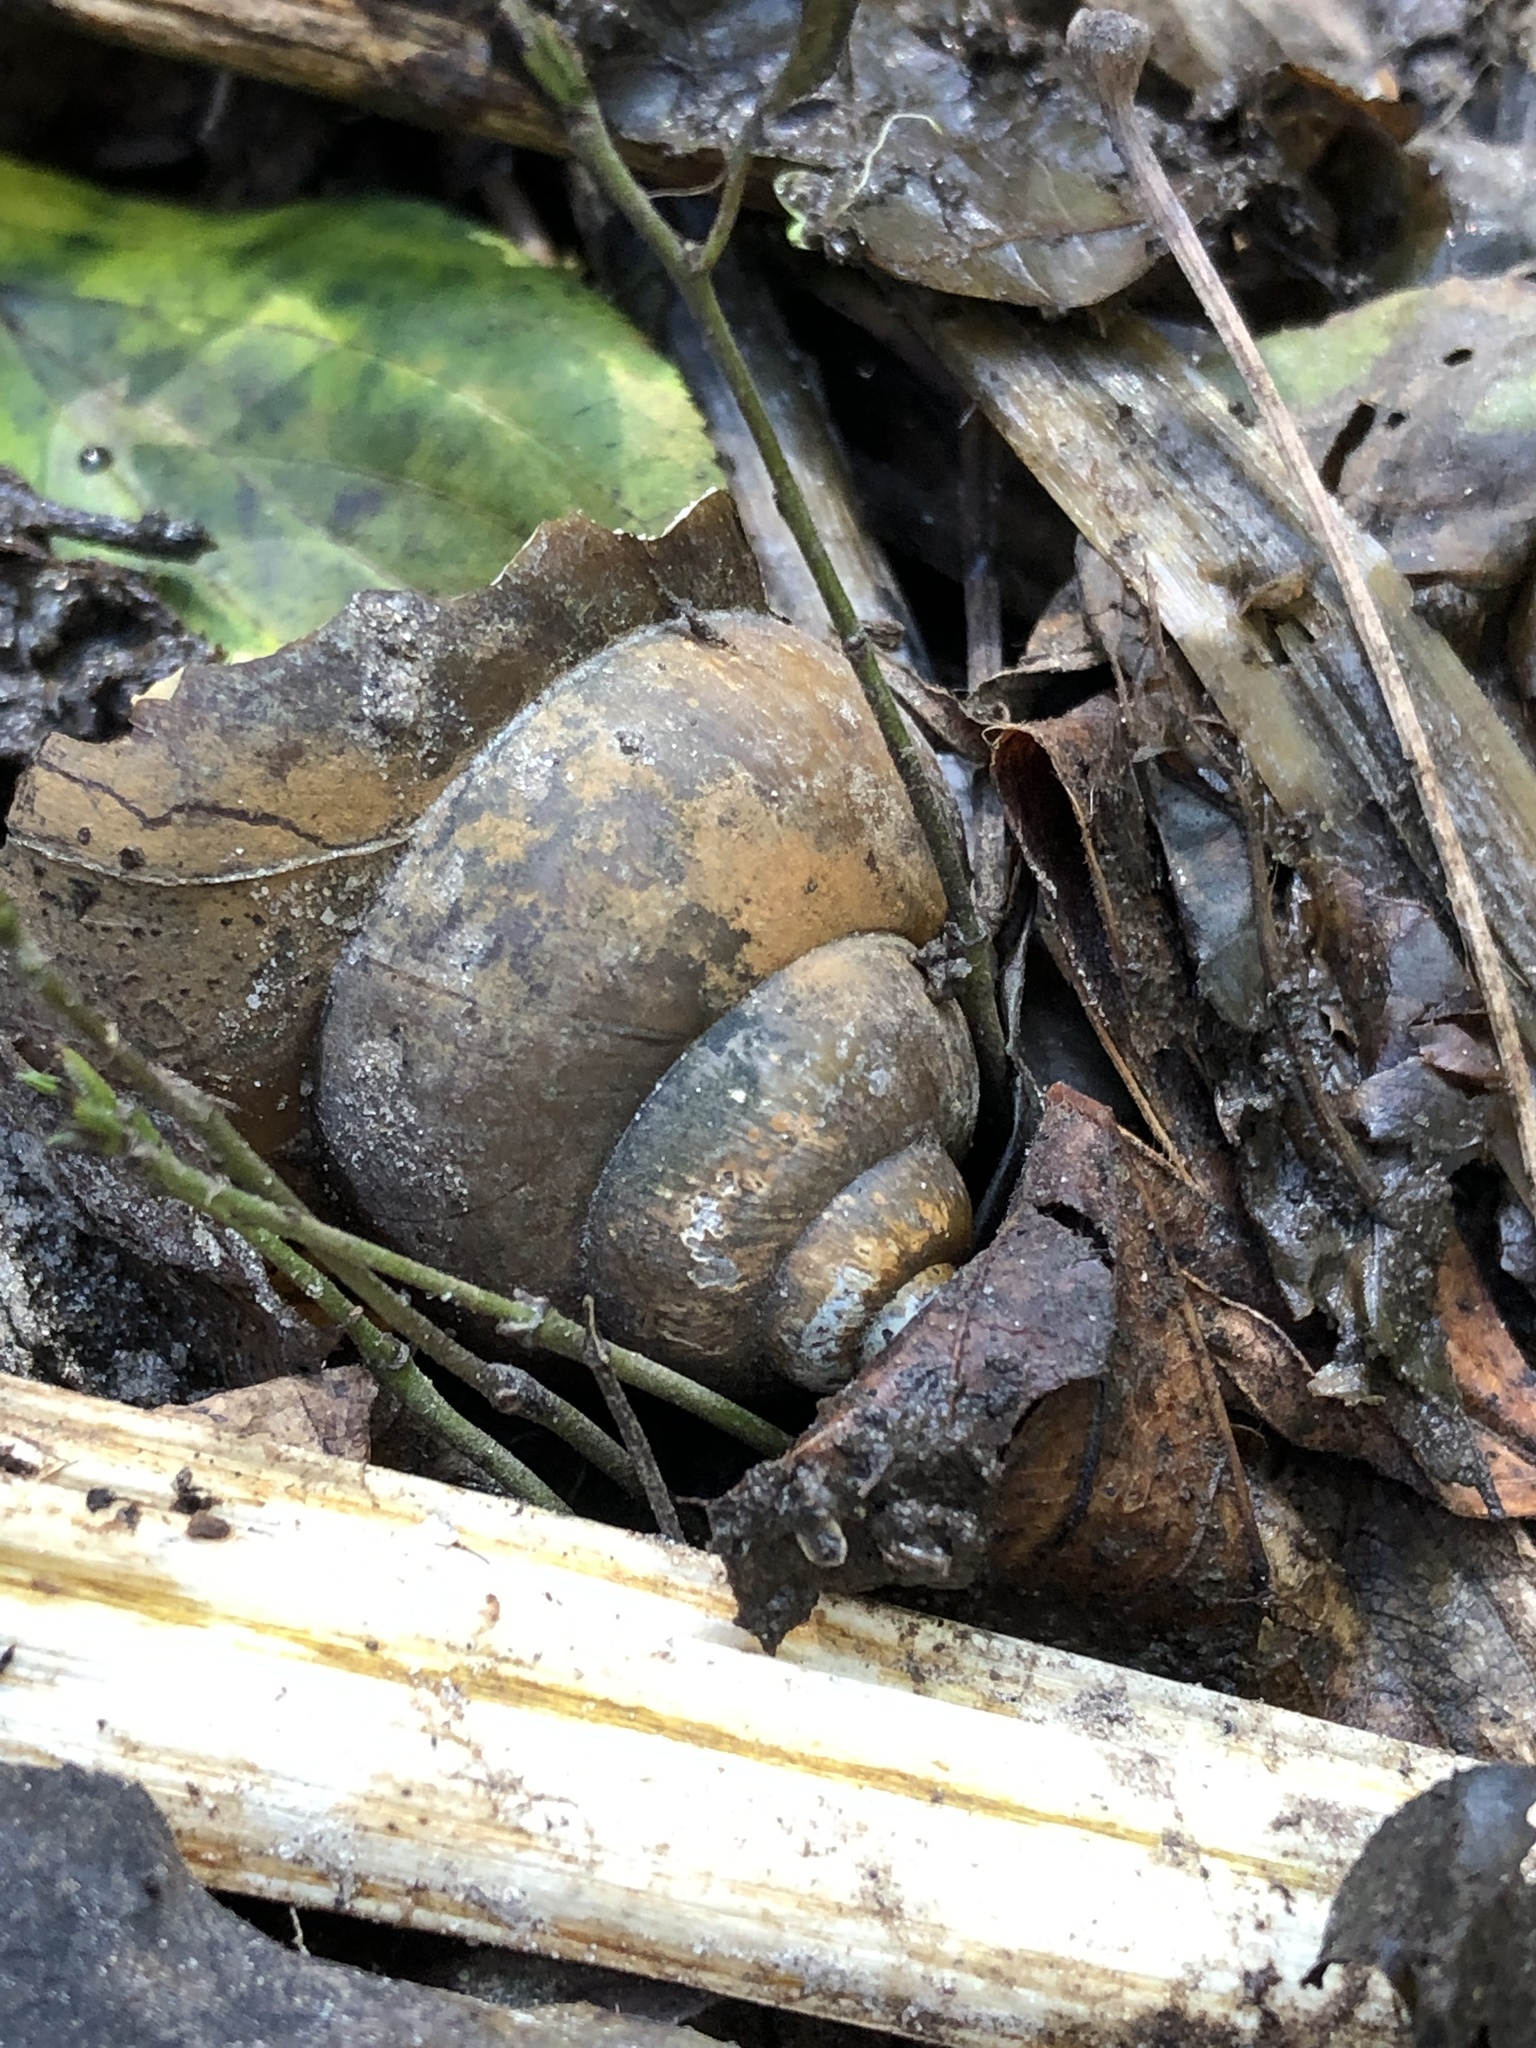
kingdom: Animalia
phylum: Mollusca
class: Gastropoda
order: Architaenioglossa
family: Viviparidae
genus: Cipangopaludina
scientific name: Cipangopaludina chinensis
